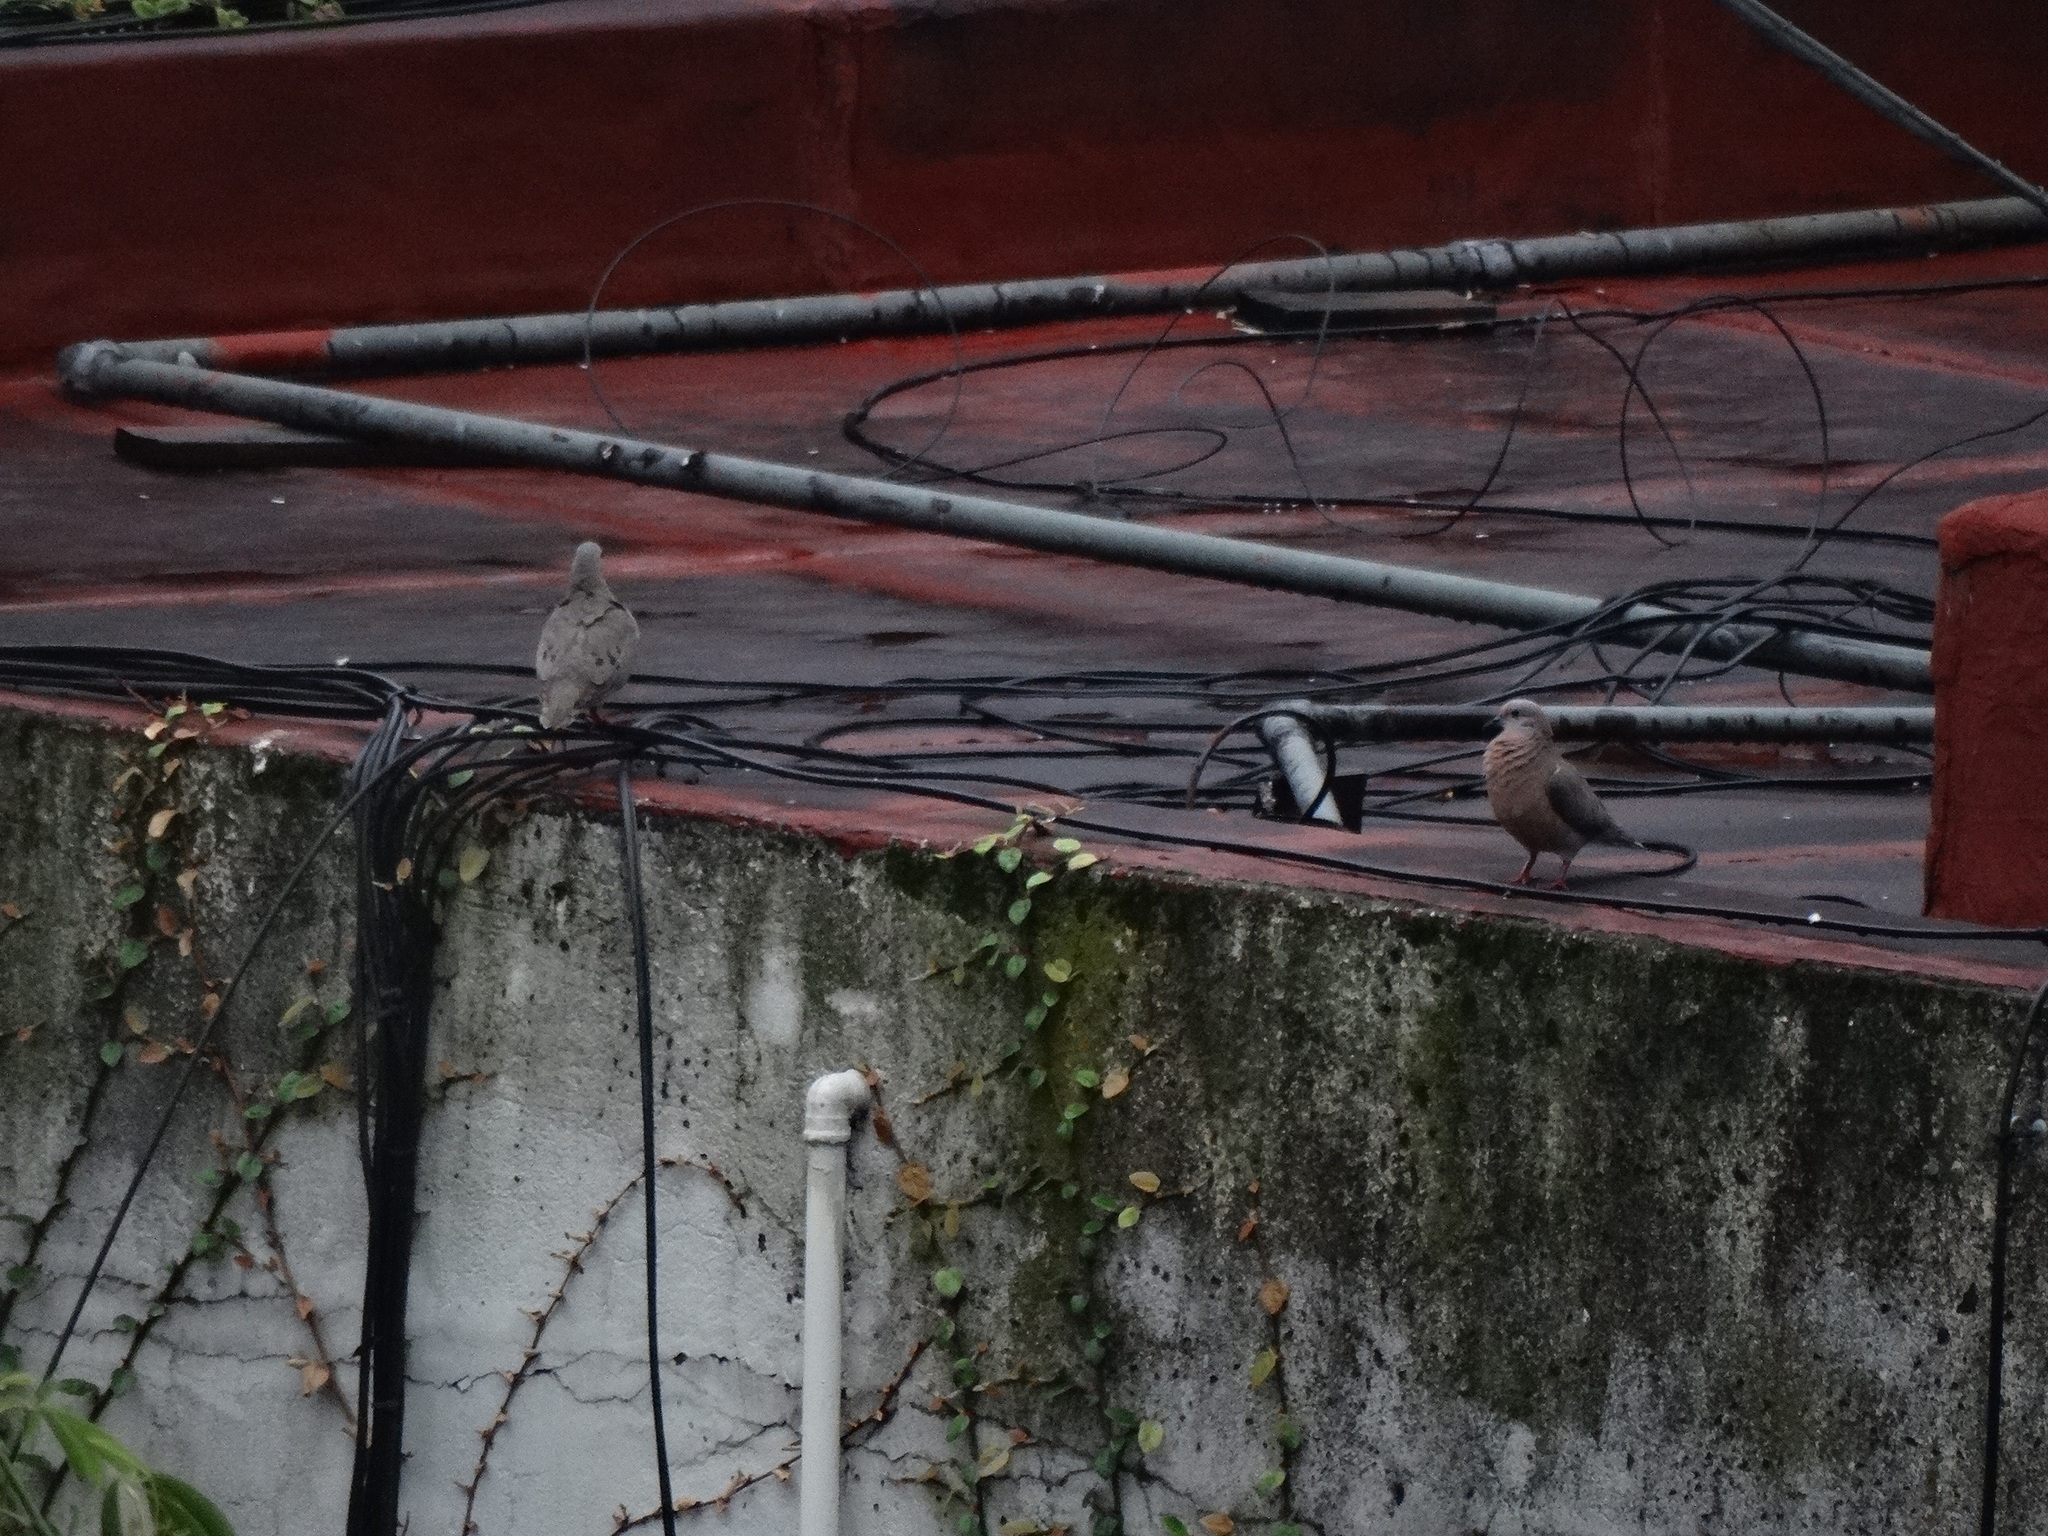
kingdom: Animalia
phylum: Chordata
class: Aves
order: Columbiformes
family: Columbidae
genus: Zenaida
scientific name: Zenaida auriculata
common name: Eared dove
